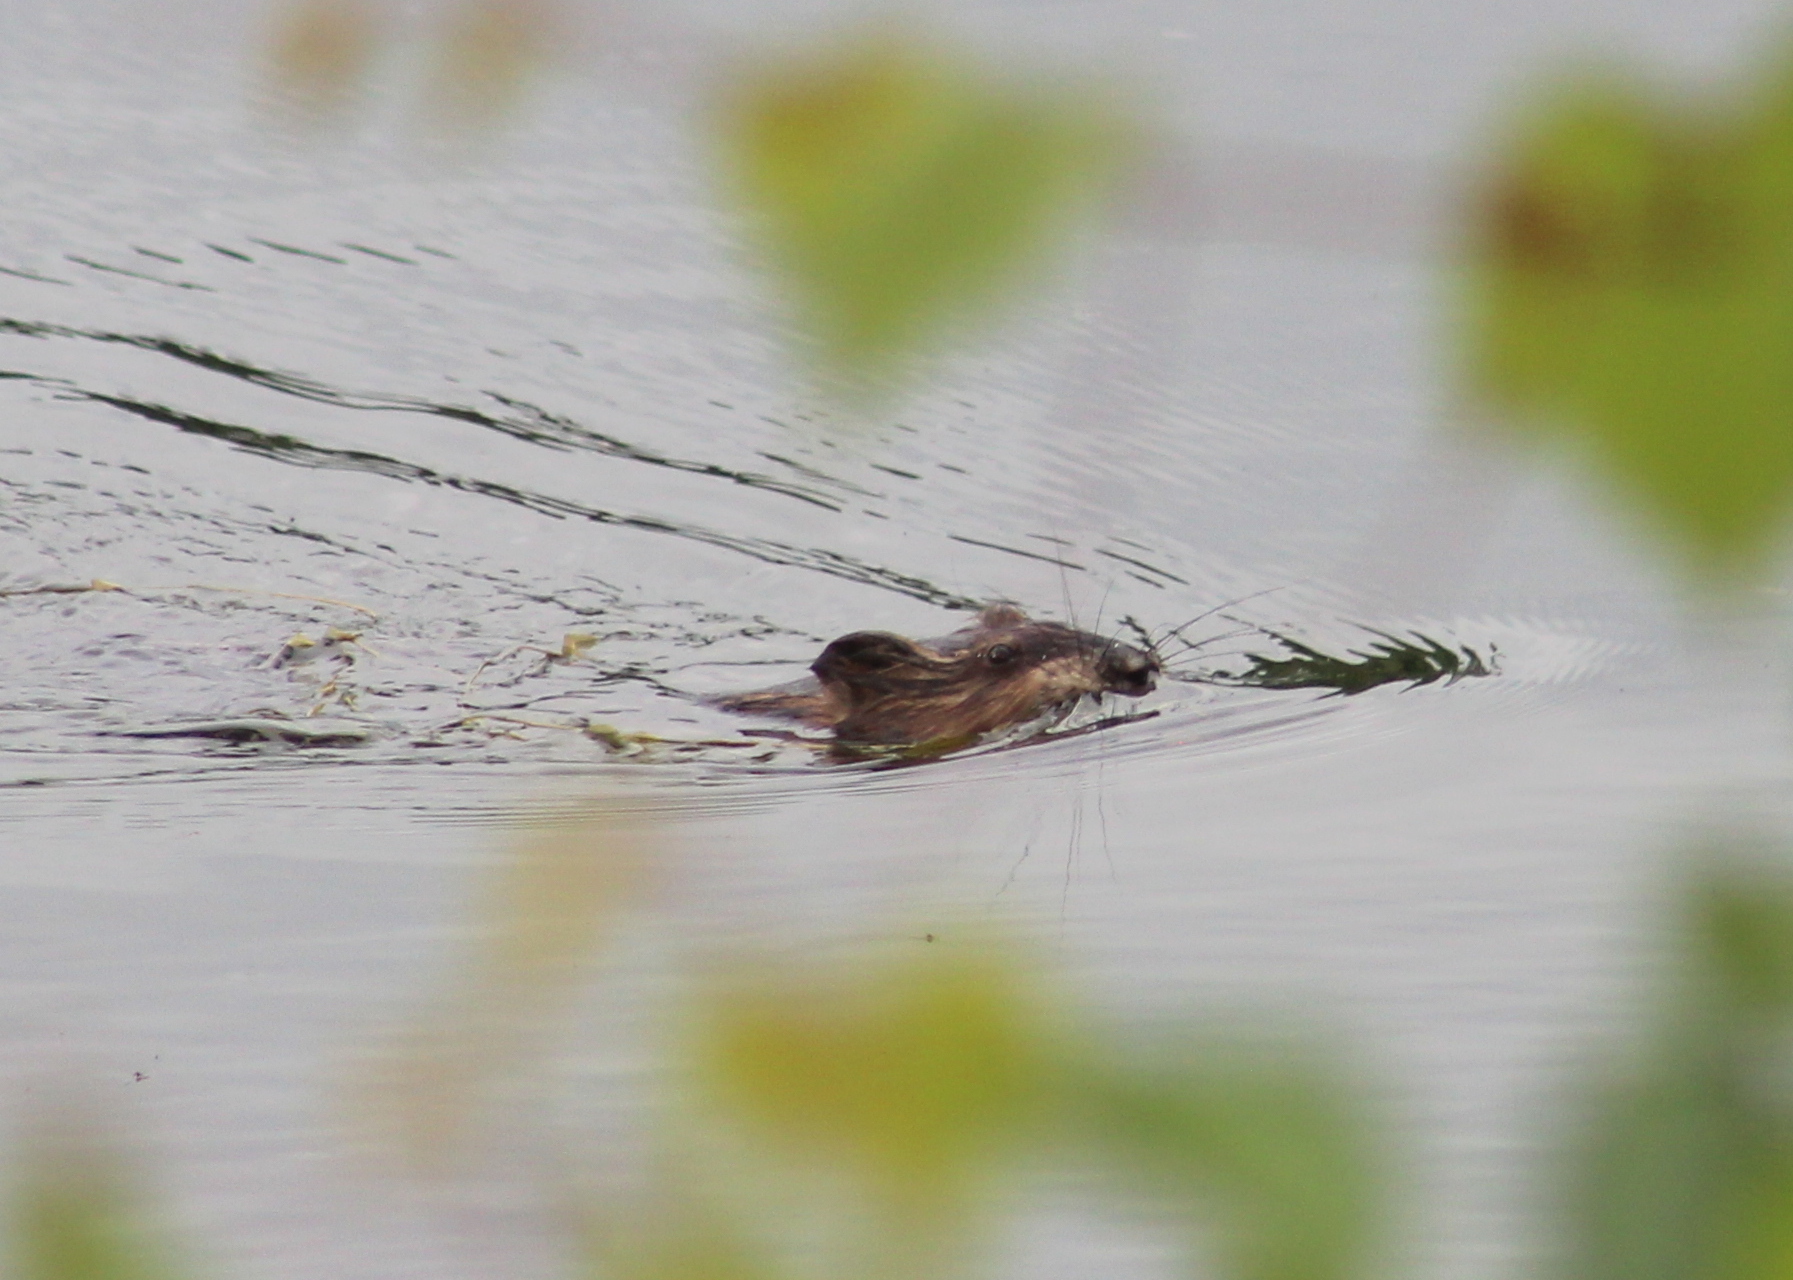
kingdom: Animalia
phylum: Chordata
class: Mammalia
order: Rodentia
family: Cricetidae
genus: Ondatra
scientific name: Ondatra zibethicus
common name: Muskrat
